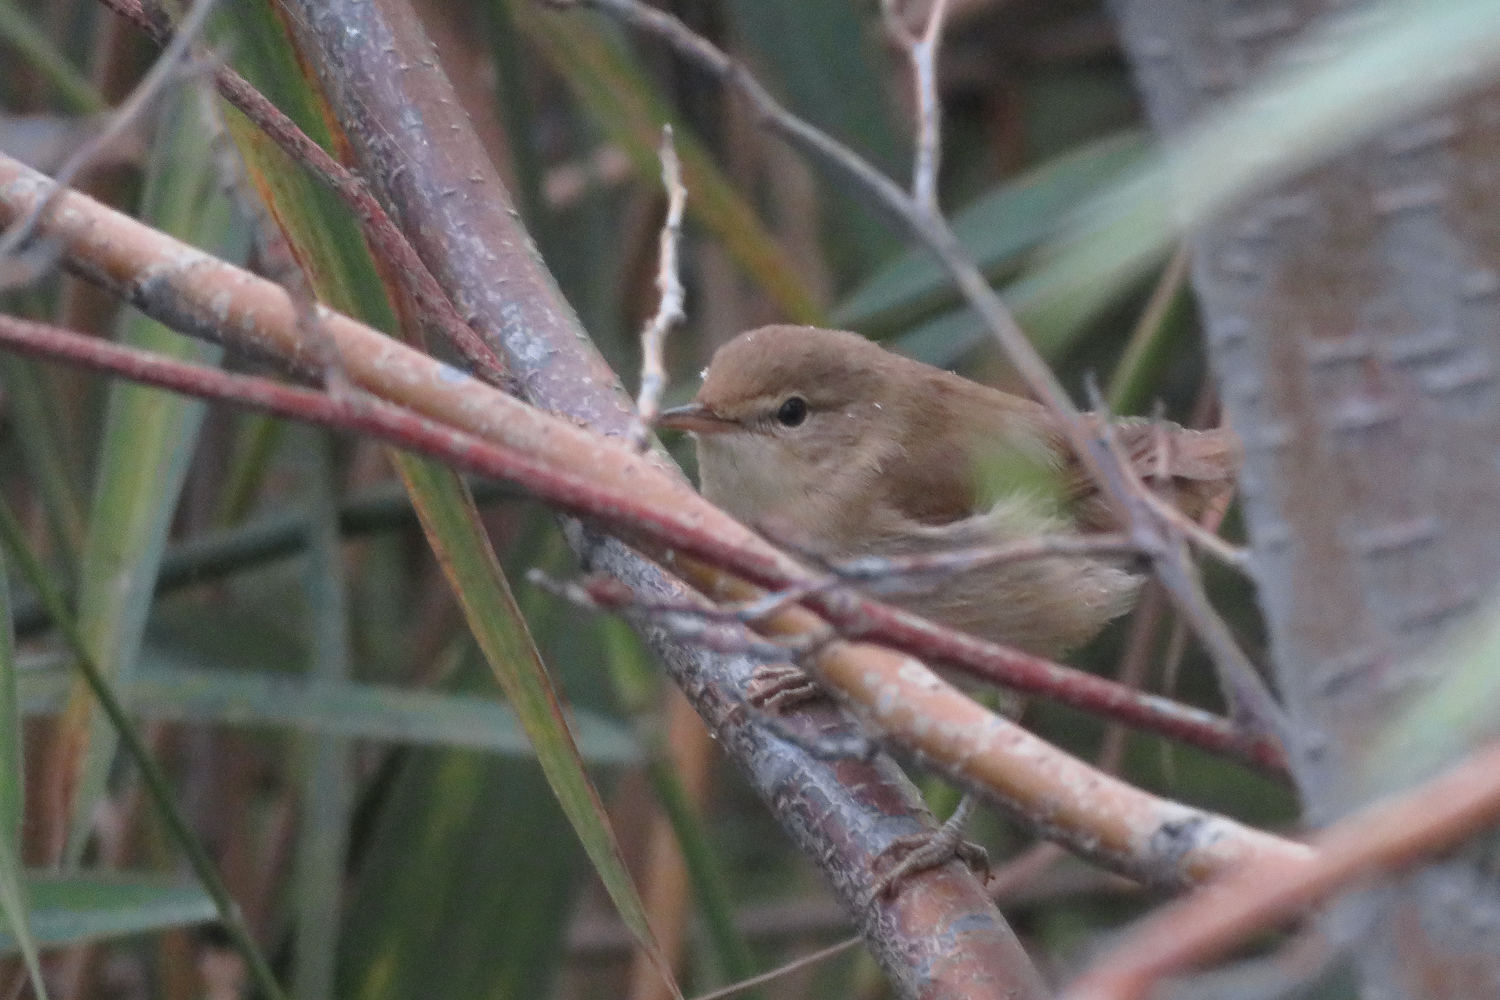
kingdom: Animalia
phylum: Chordata
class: Aves
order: Passeriformes
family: Acrocephalidae
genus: Acrocephalus
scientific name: Acrocephalus dumetorum
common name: Blyth's reed warbler
